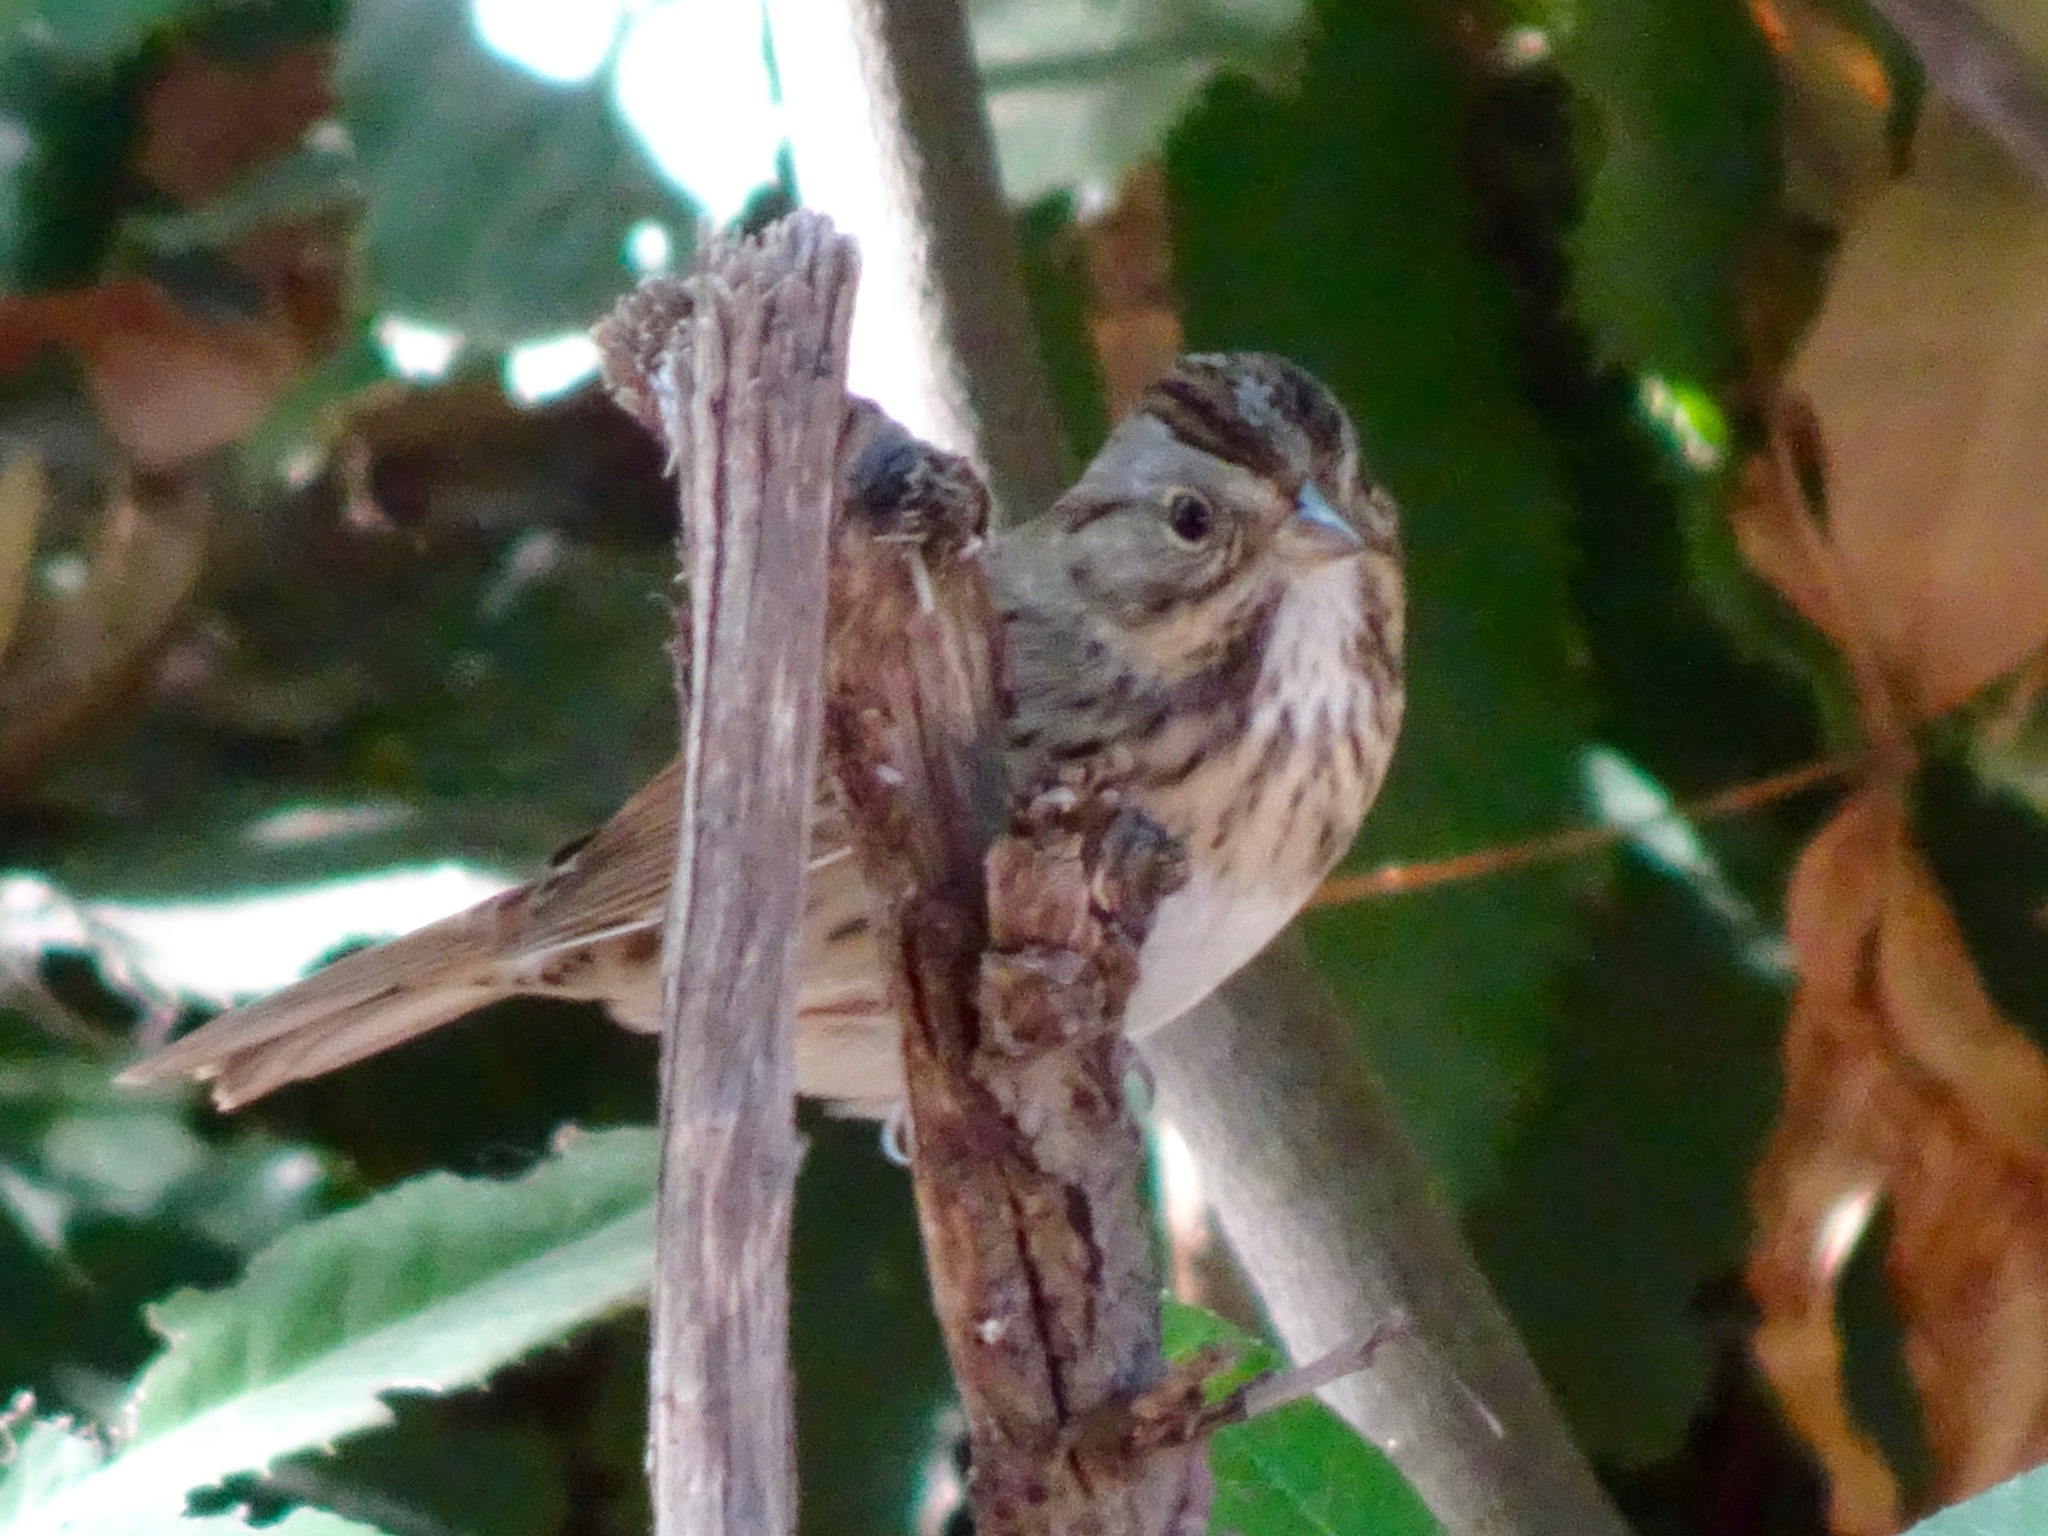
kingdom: Animalia
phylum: Chordata
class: Aves
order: Passeriformes
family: Passerellidae
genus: Melospiza
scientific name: Melospiza lincolnii
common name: Lincoln's sparrow
